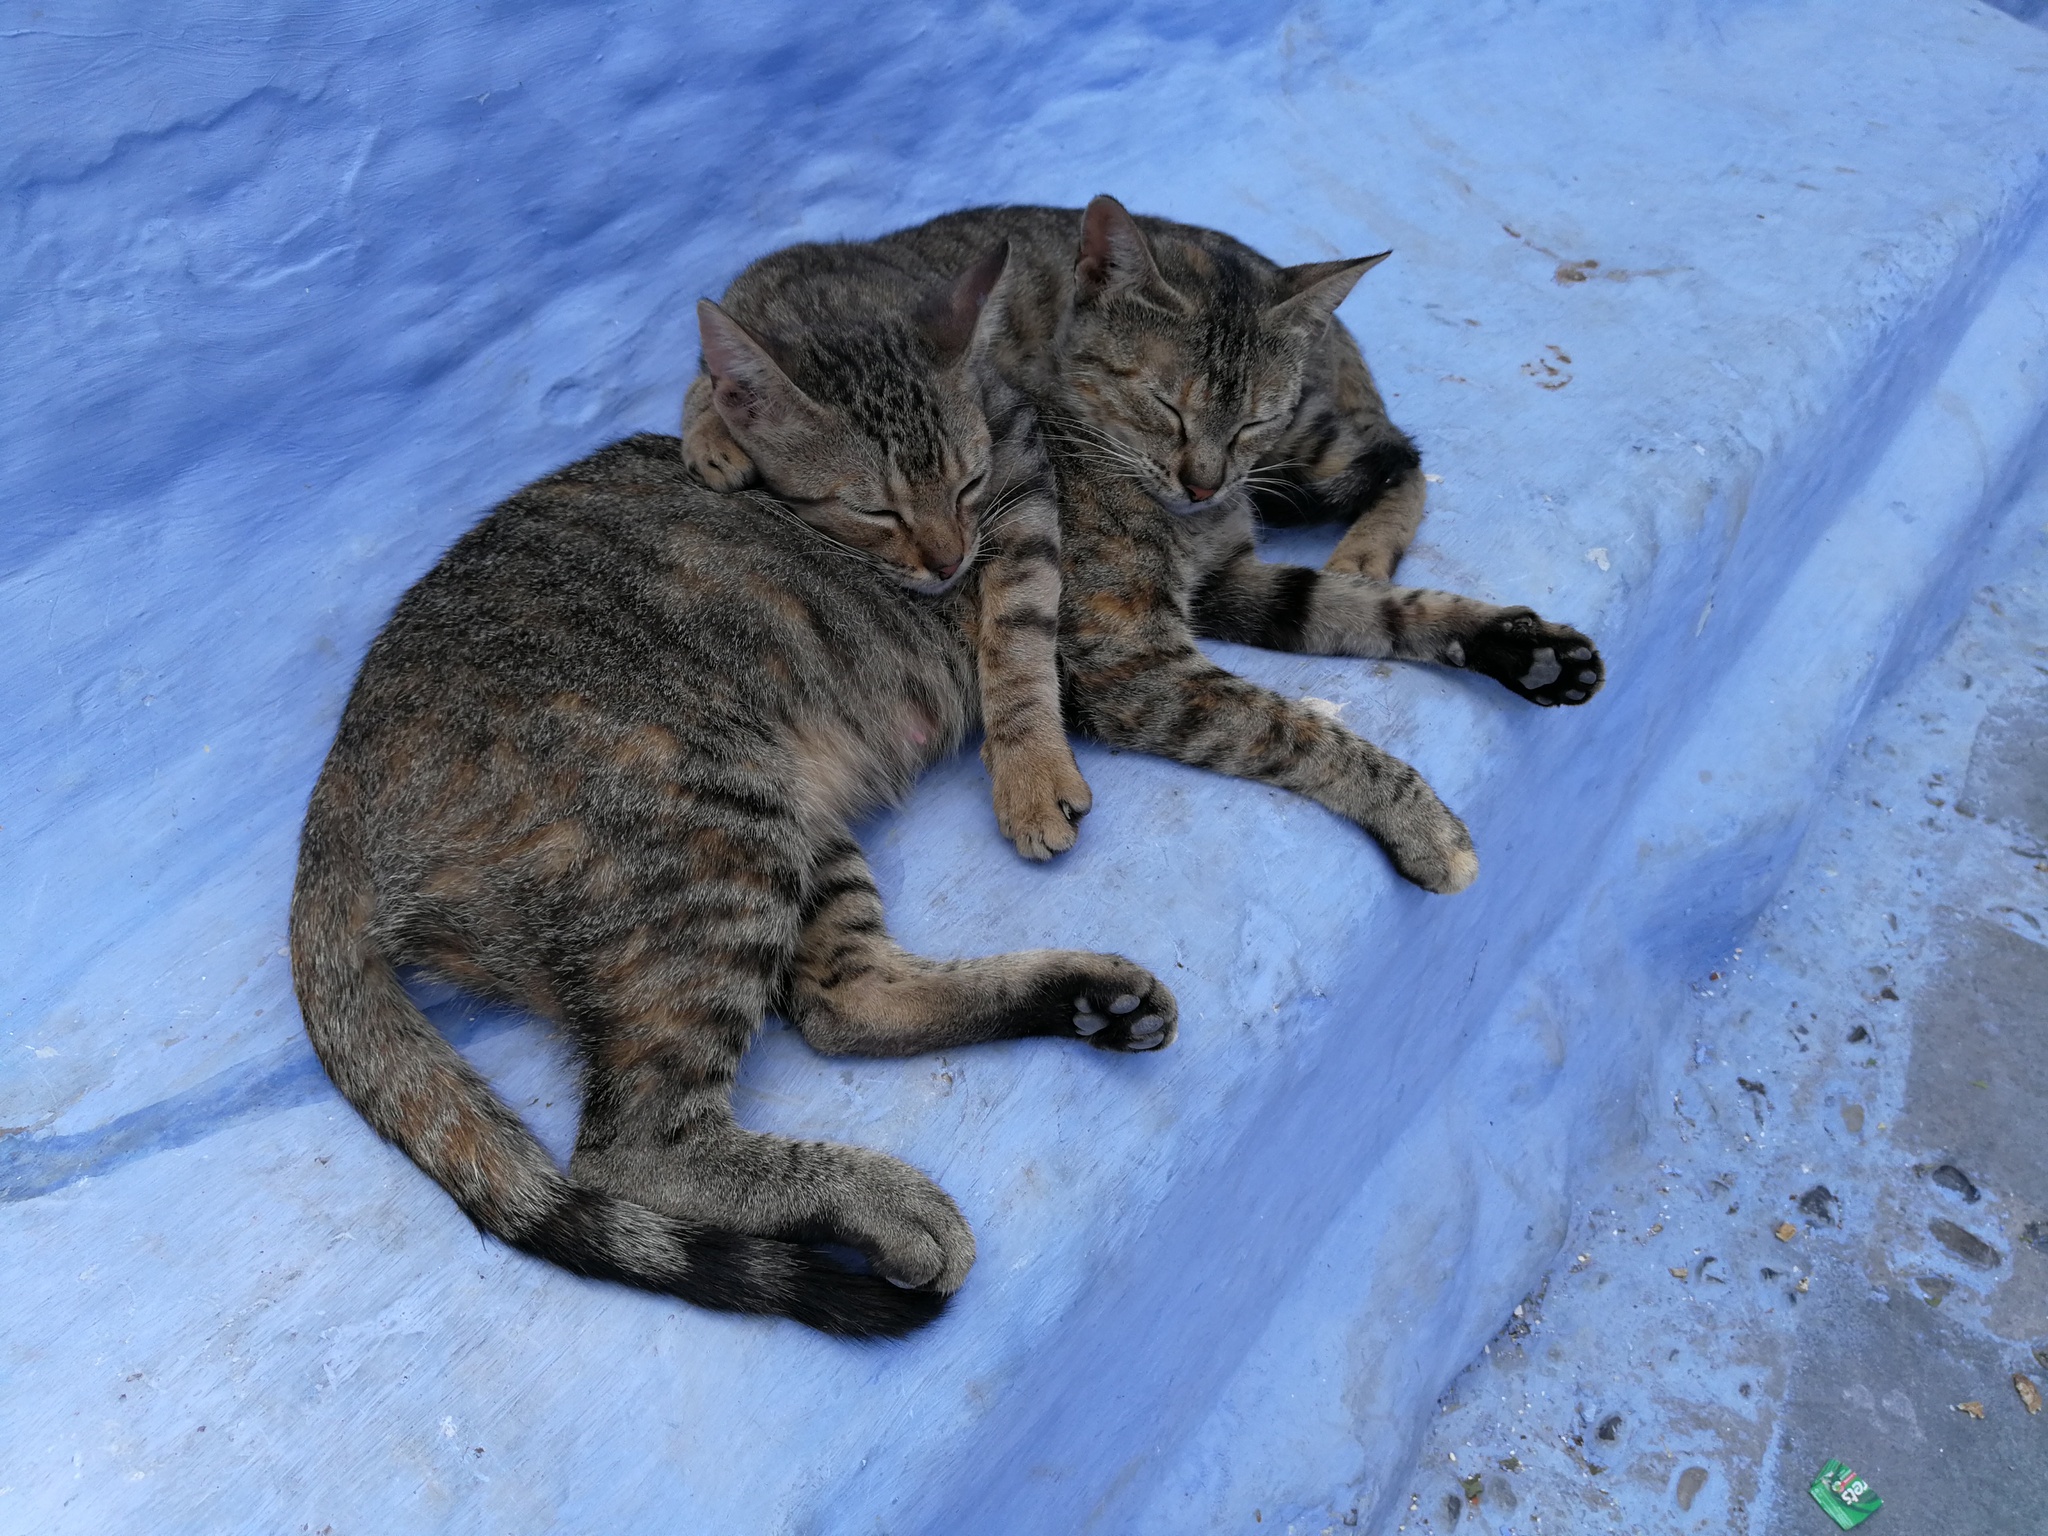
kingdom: Animalia
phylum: Chordata
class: Mammalia
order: Carnivora
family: Felidae
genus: Felis
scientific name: Felis catus
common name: Domestic cat
